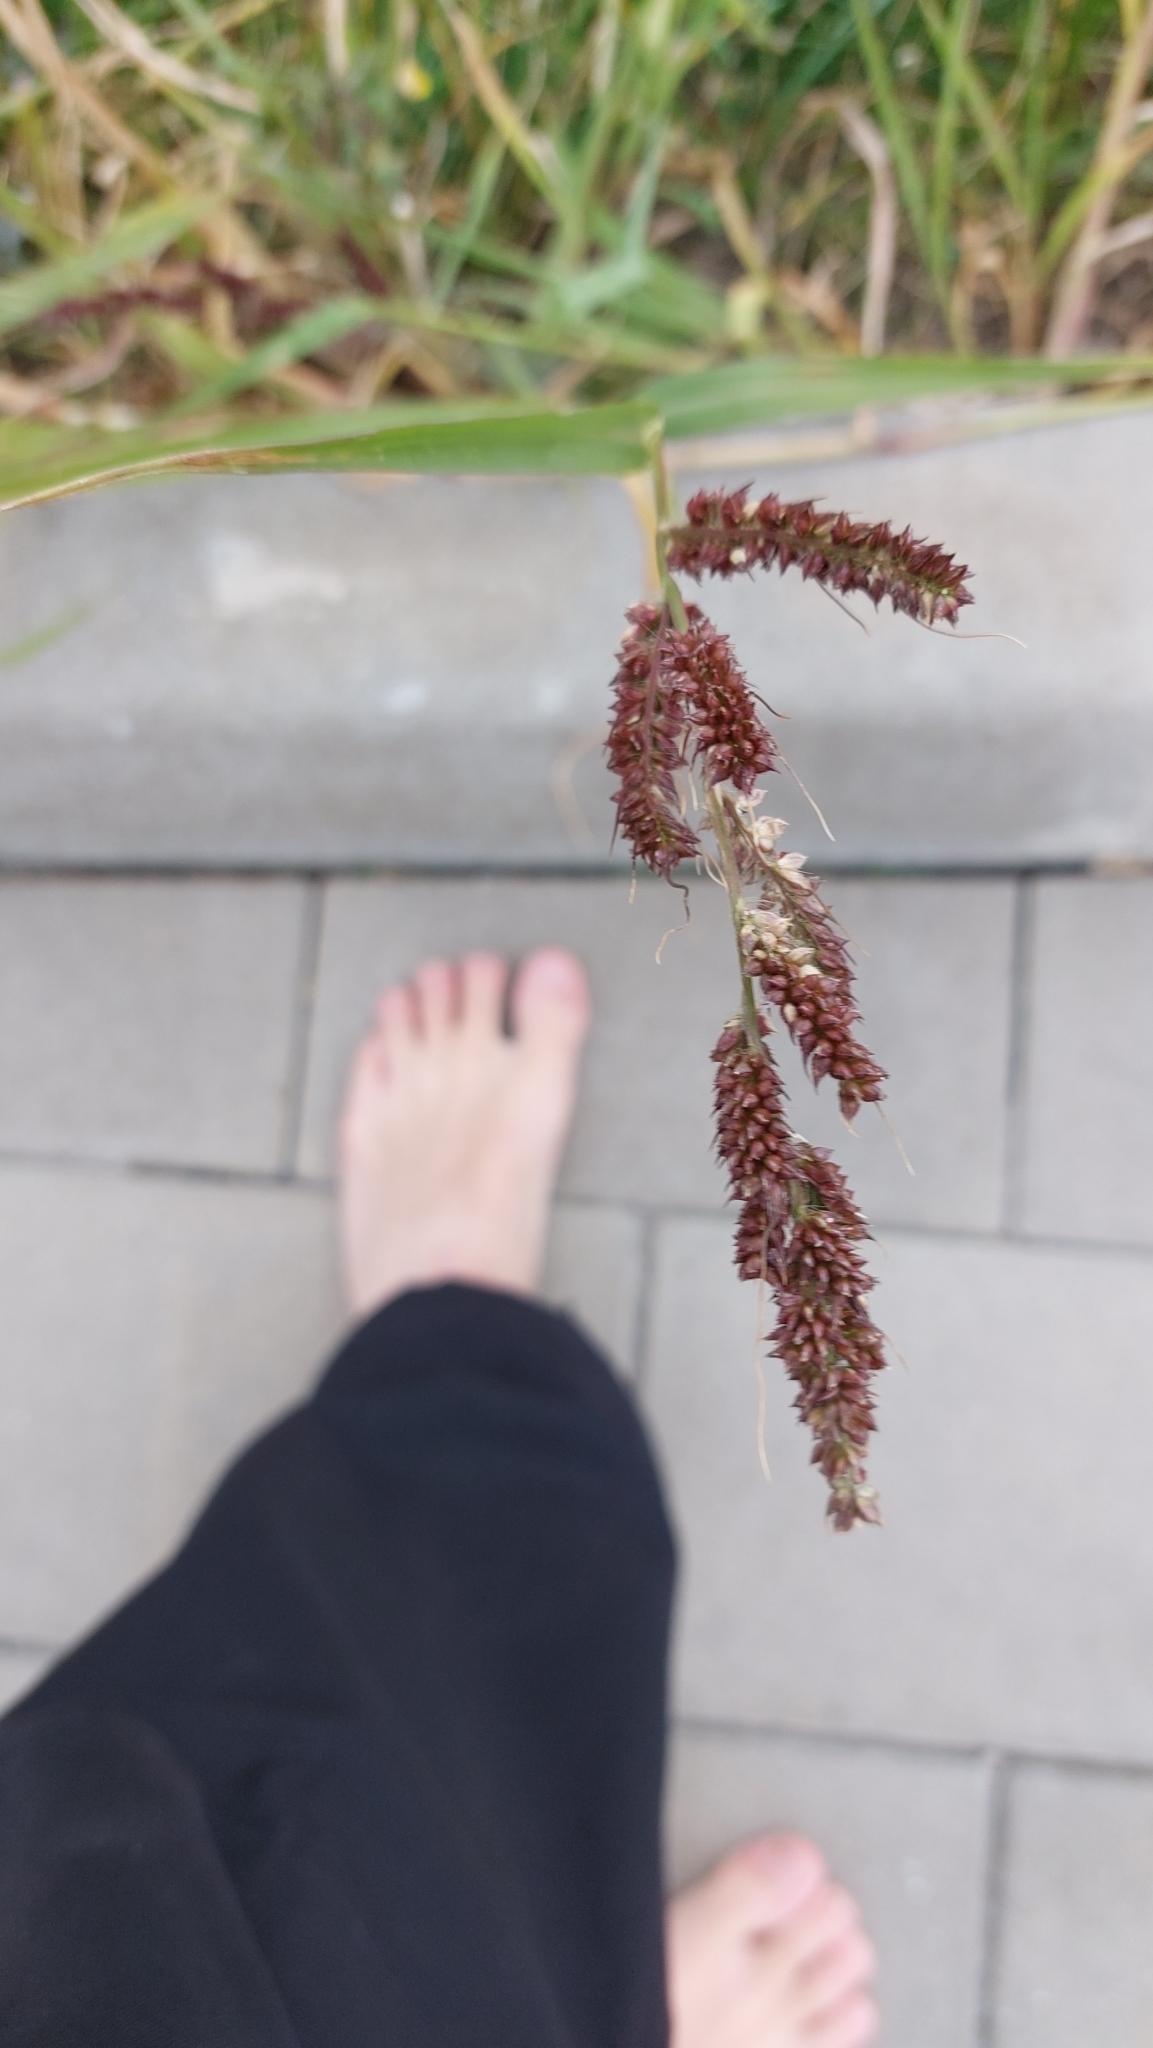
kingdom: Plantae
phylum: Tracheophyta
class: Liliopsida
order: Poales
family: Poaceae
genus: Echinochloa
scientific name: Echinochloa crus-galli
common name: Cockspur
